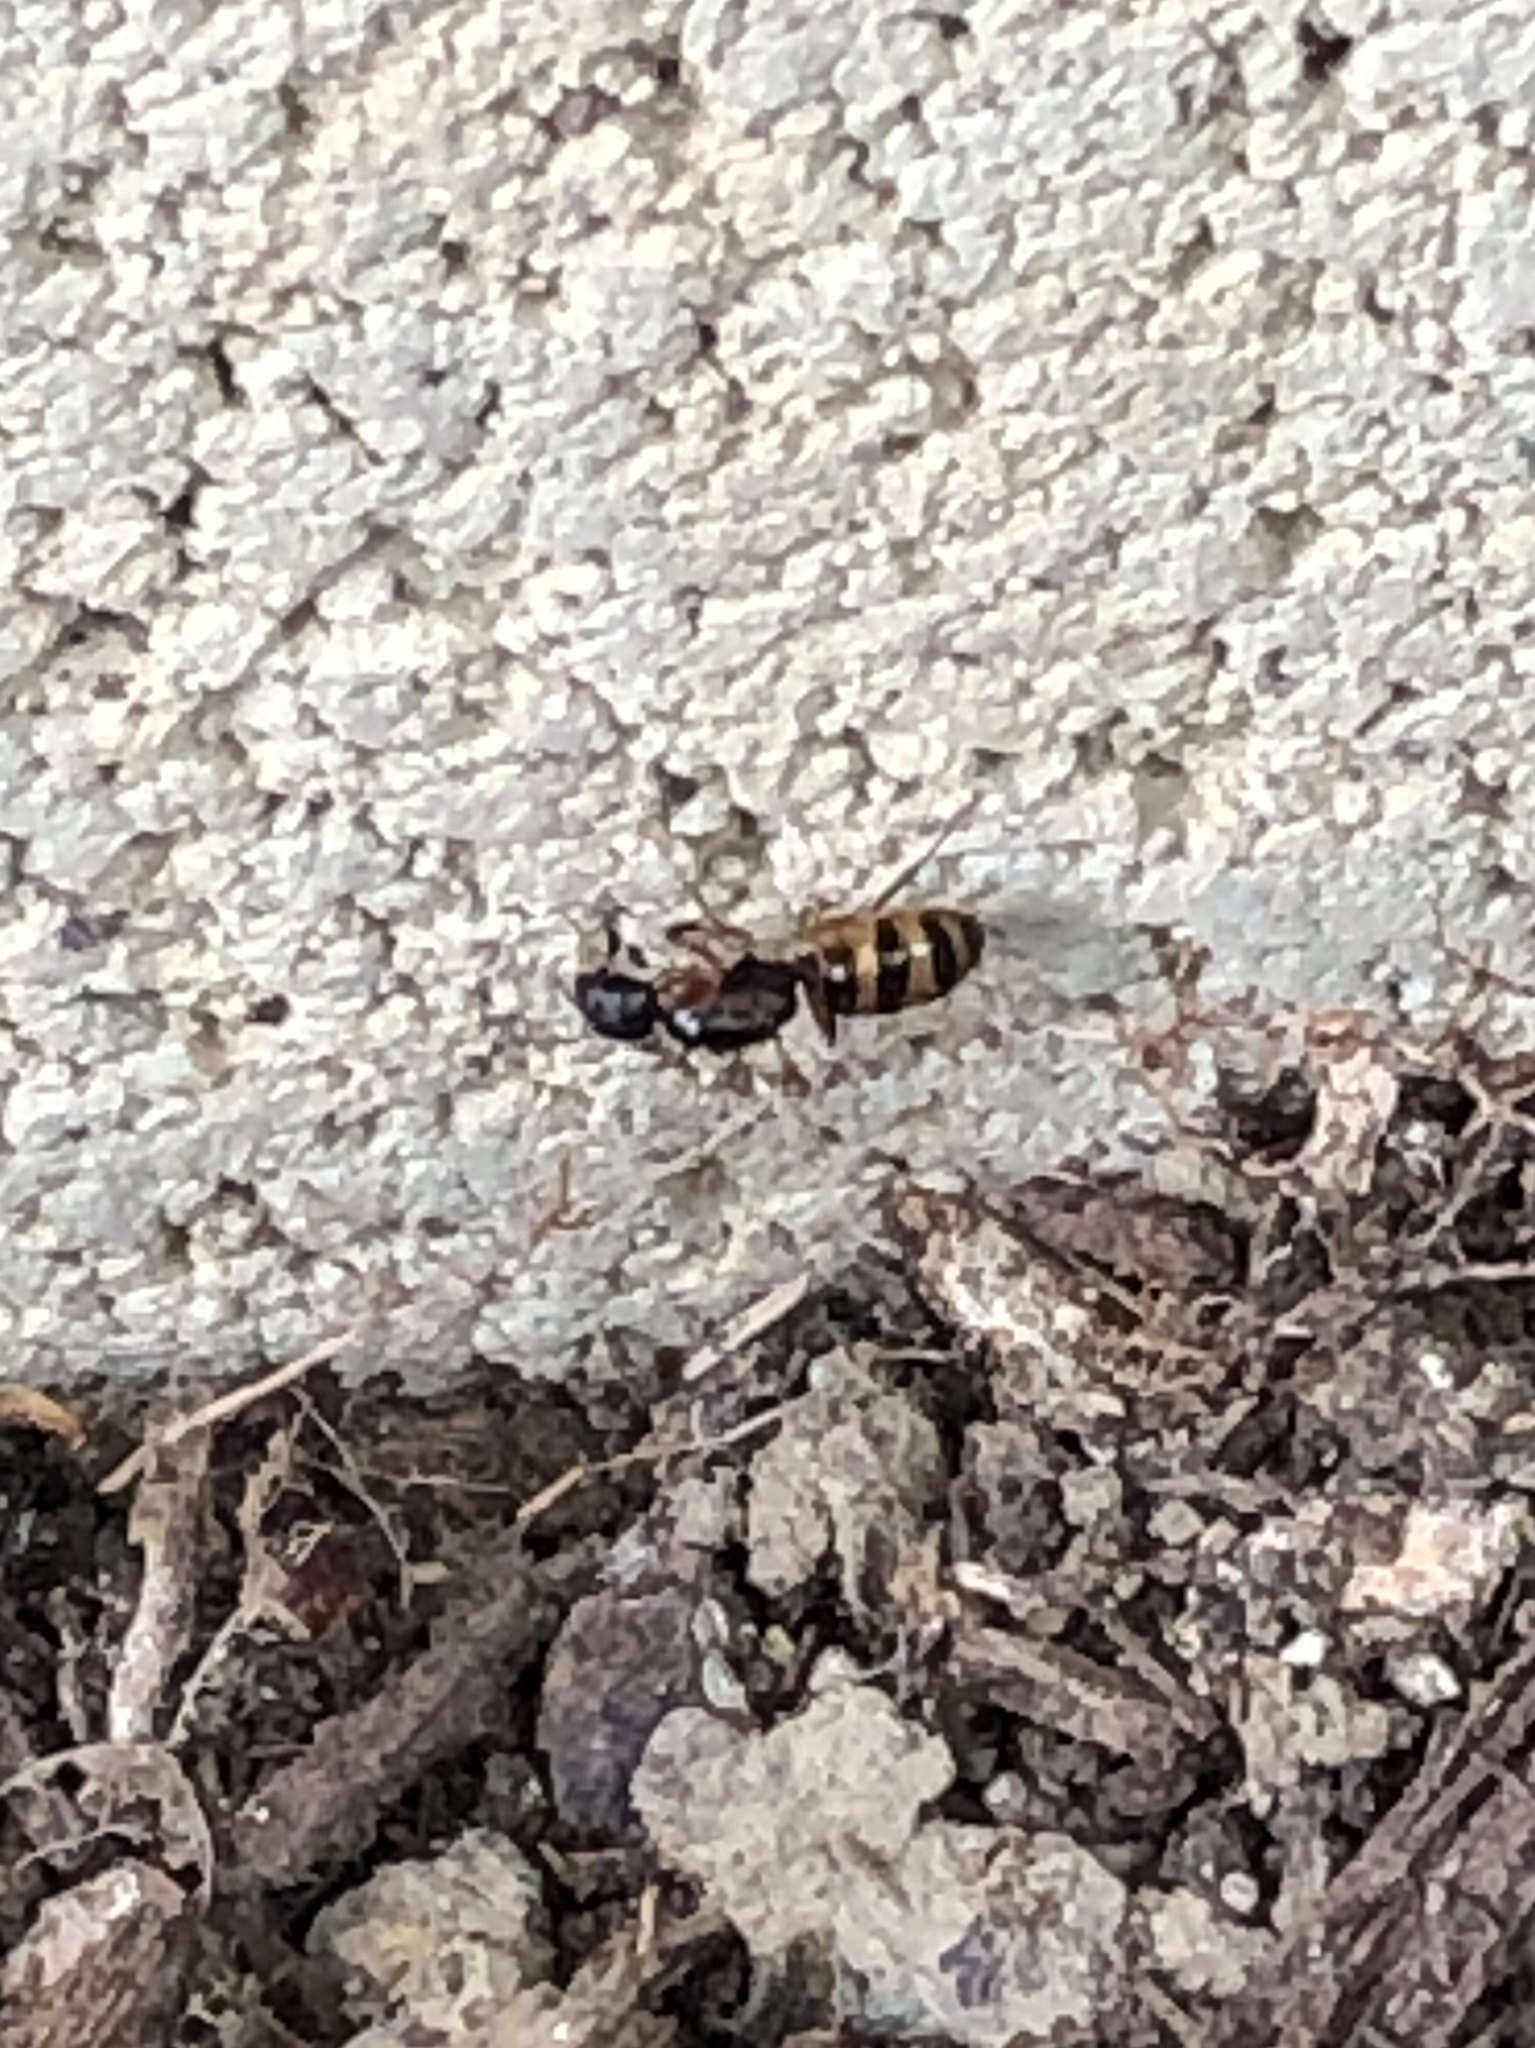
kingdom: Animalia
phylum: Arthropoda
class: Insecta
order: Hymenoptera
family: Formicidae
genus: Camponotus
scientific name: Camponotus subbarbatus
